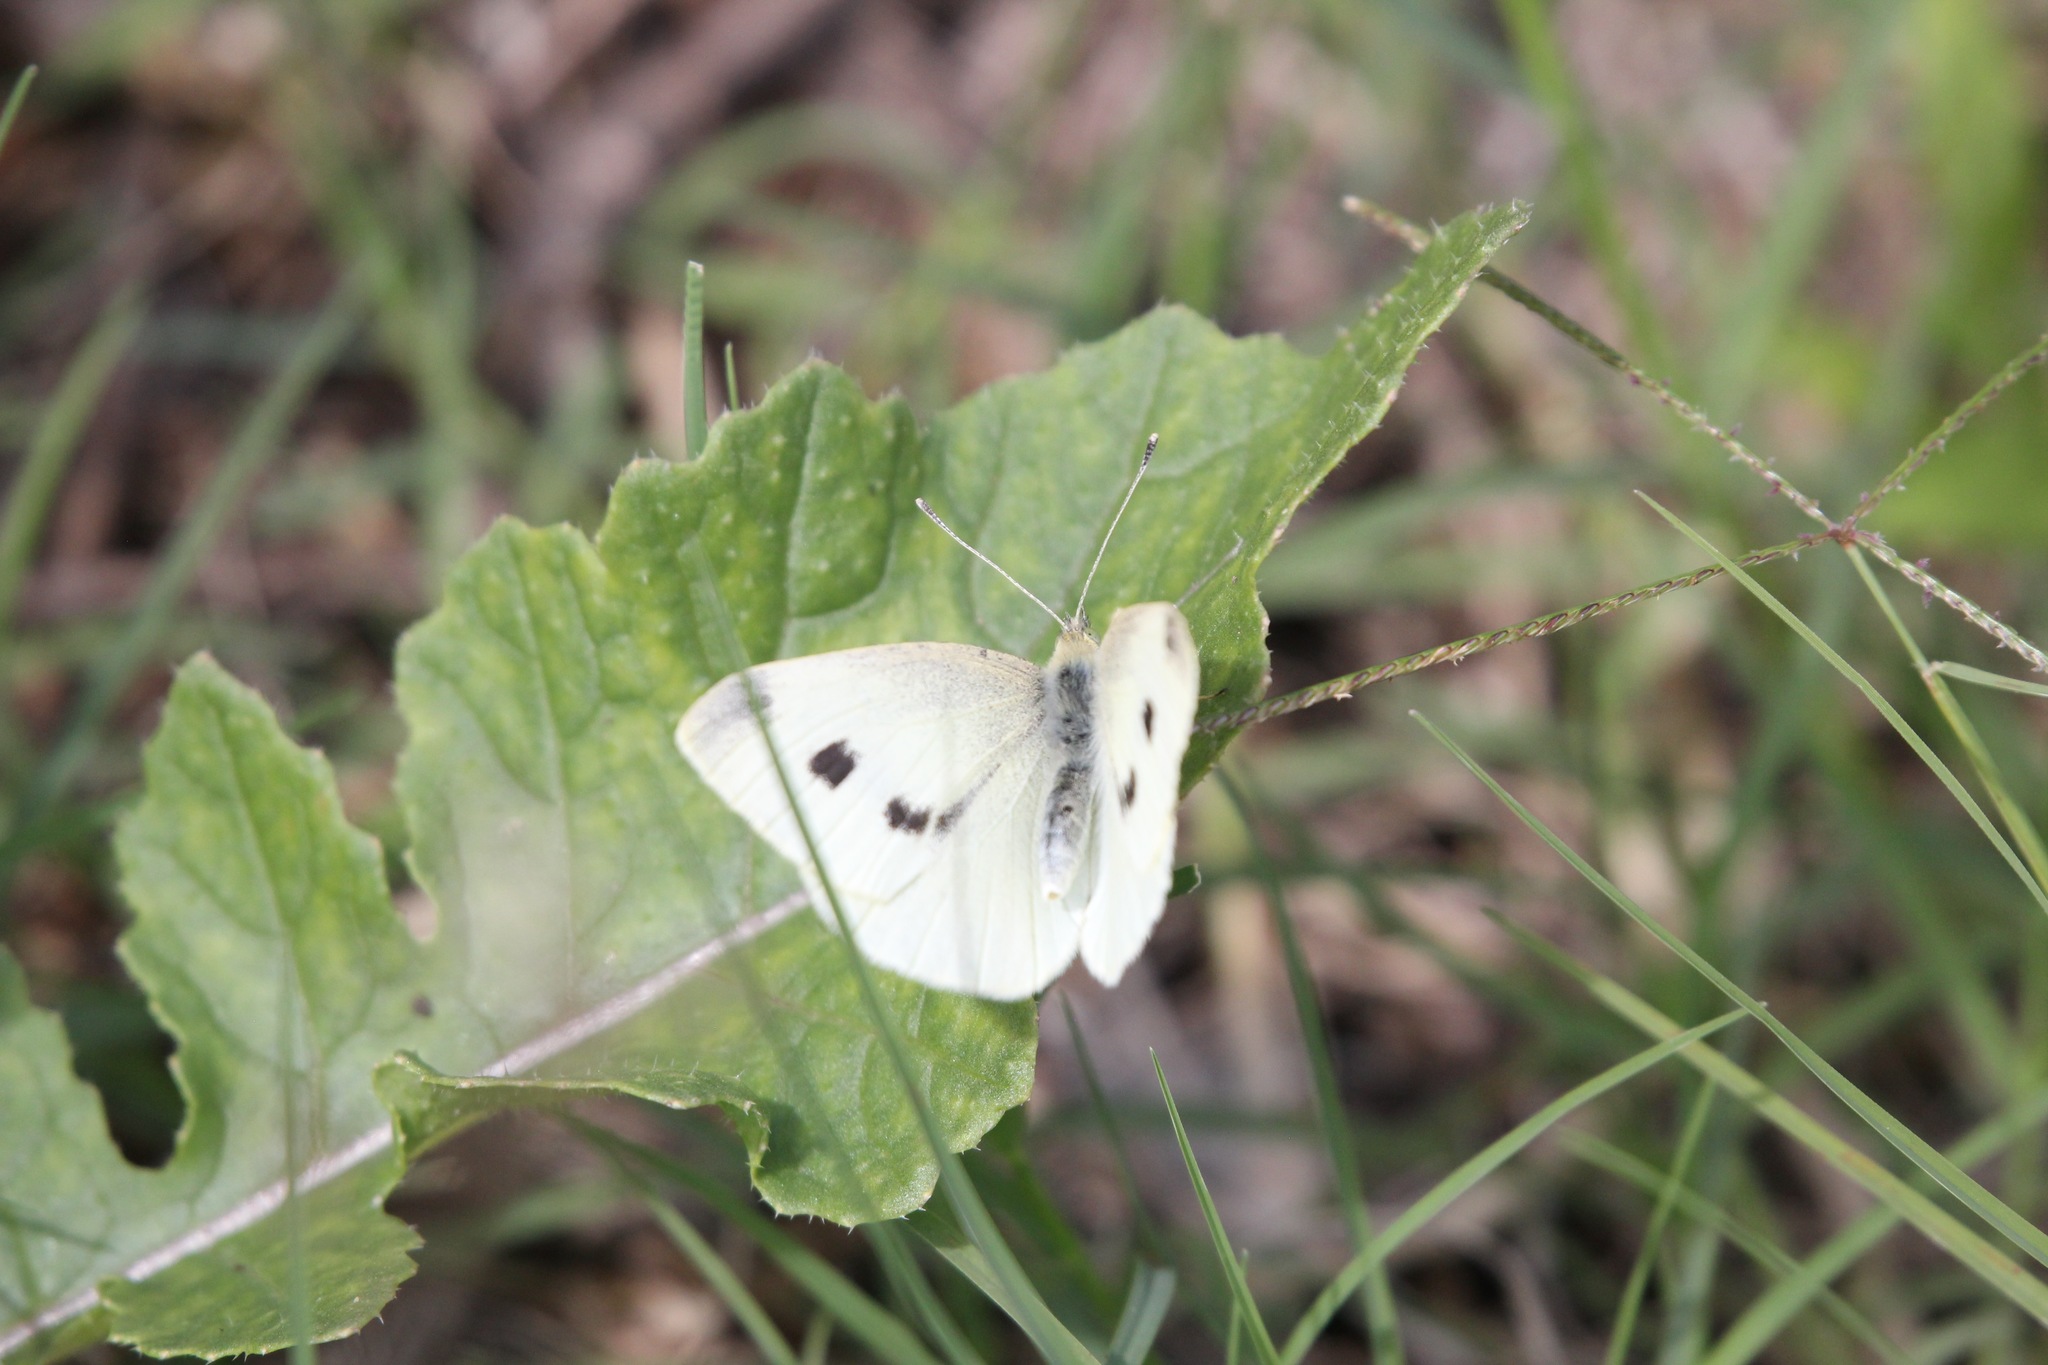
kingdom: Animalia
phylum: Arthropoda
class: Insecta
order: Lepidoptera
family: Pieridae
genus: Pieris
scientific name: Pieris rapae
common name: Small white
